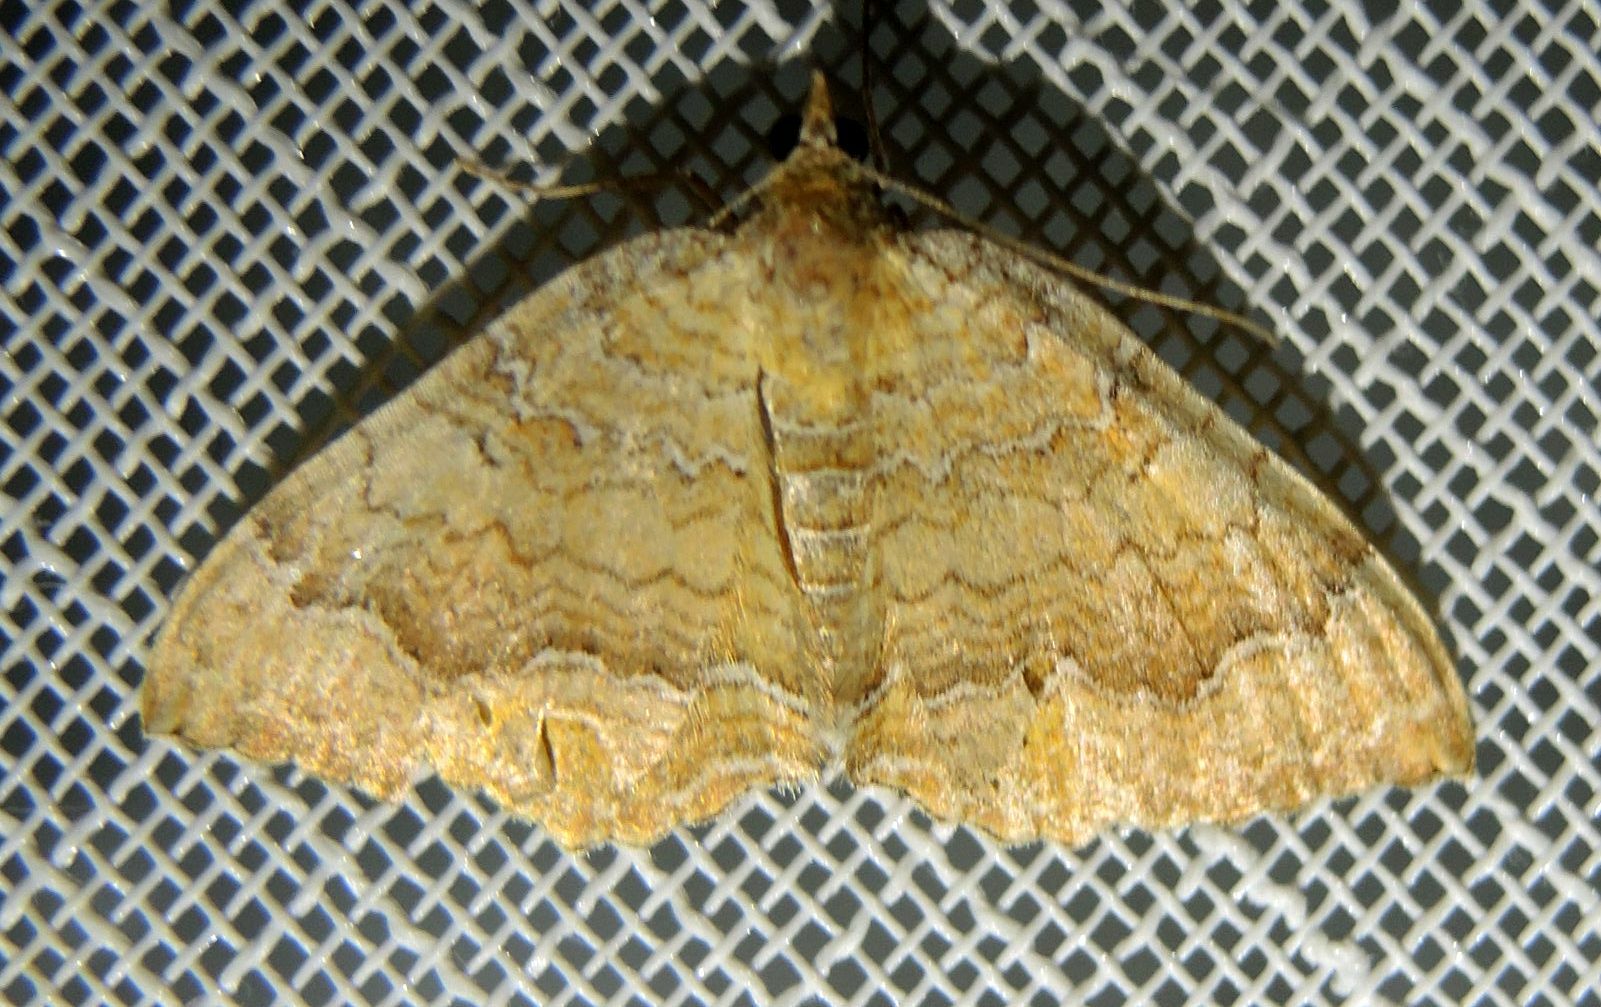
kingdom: Animalia
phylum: Arthropoda
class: Insecta
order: Lepidoptera
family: Geometridae
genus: Camptogramma
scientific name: Camptogramma bilineata
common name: Yellow shell
